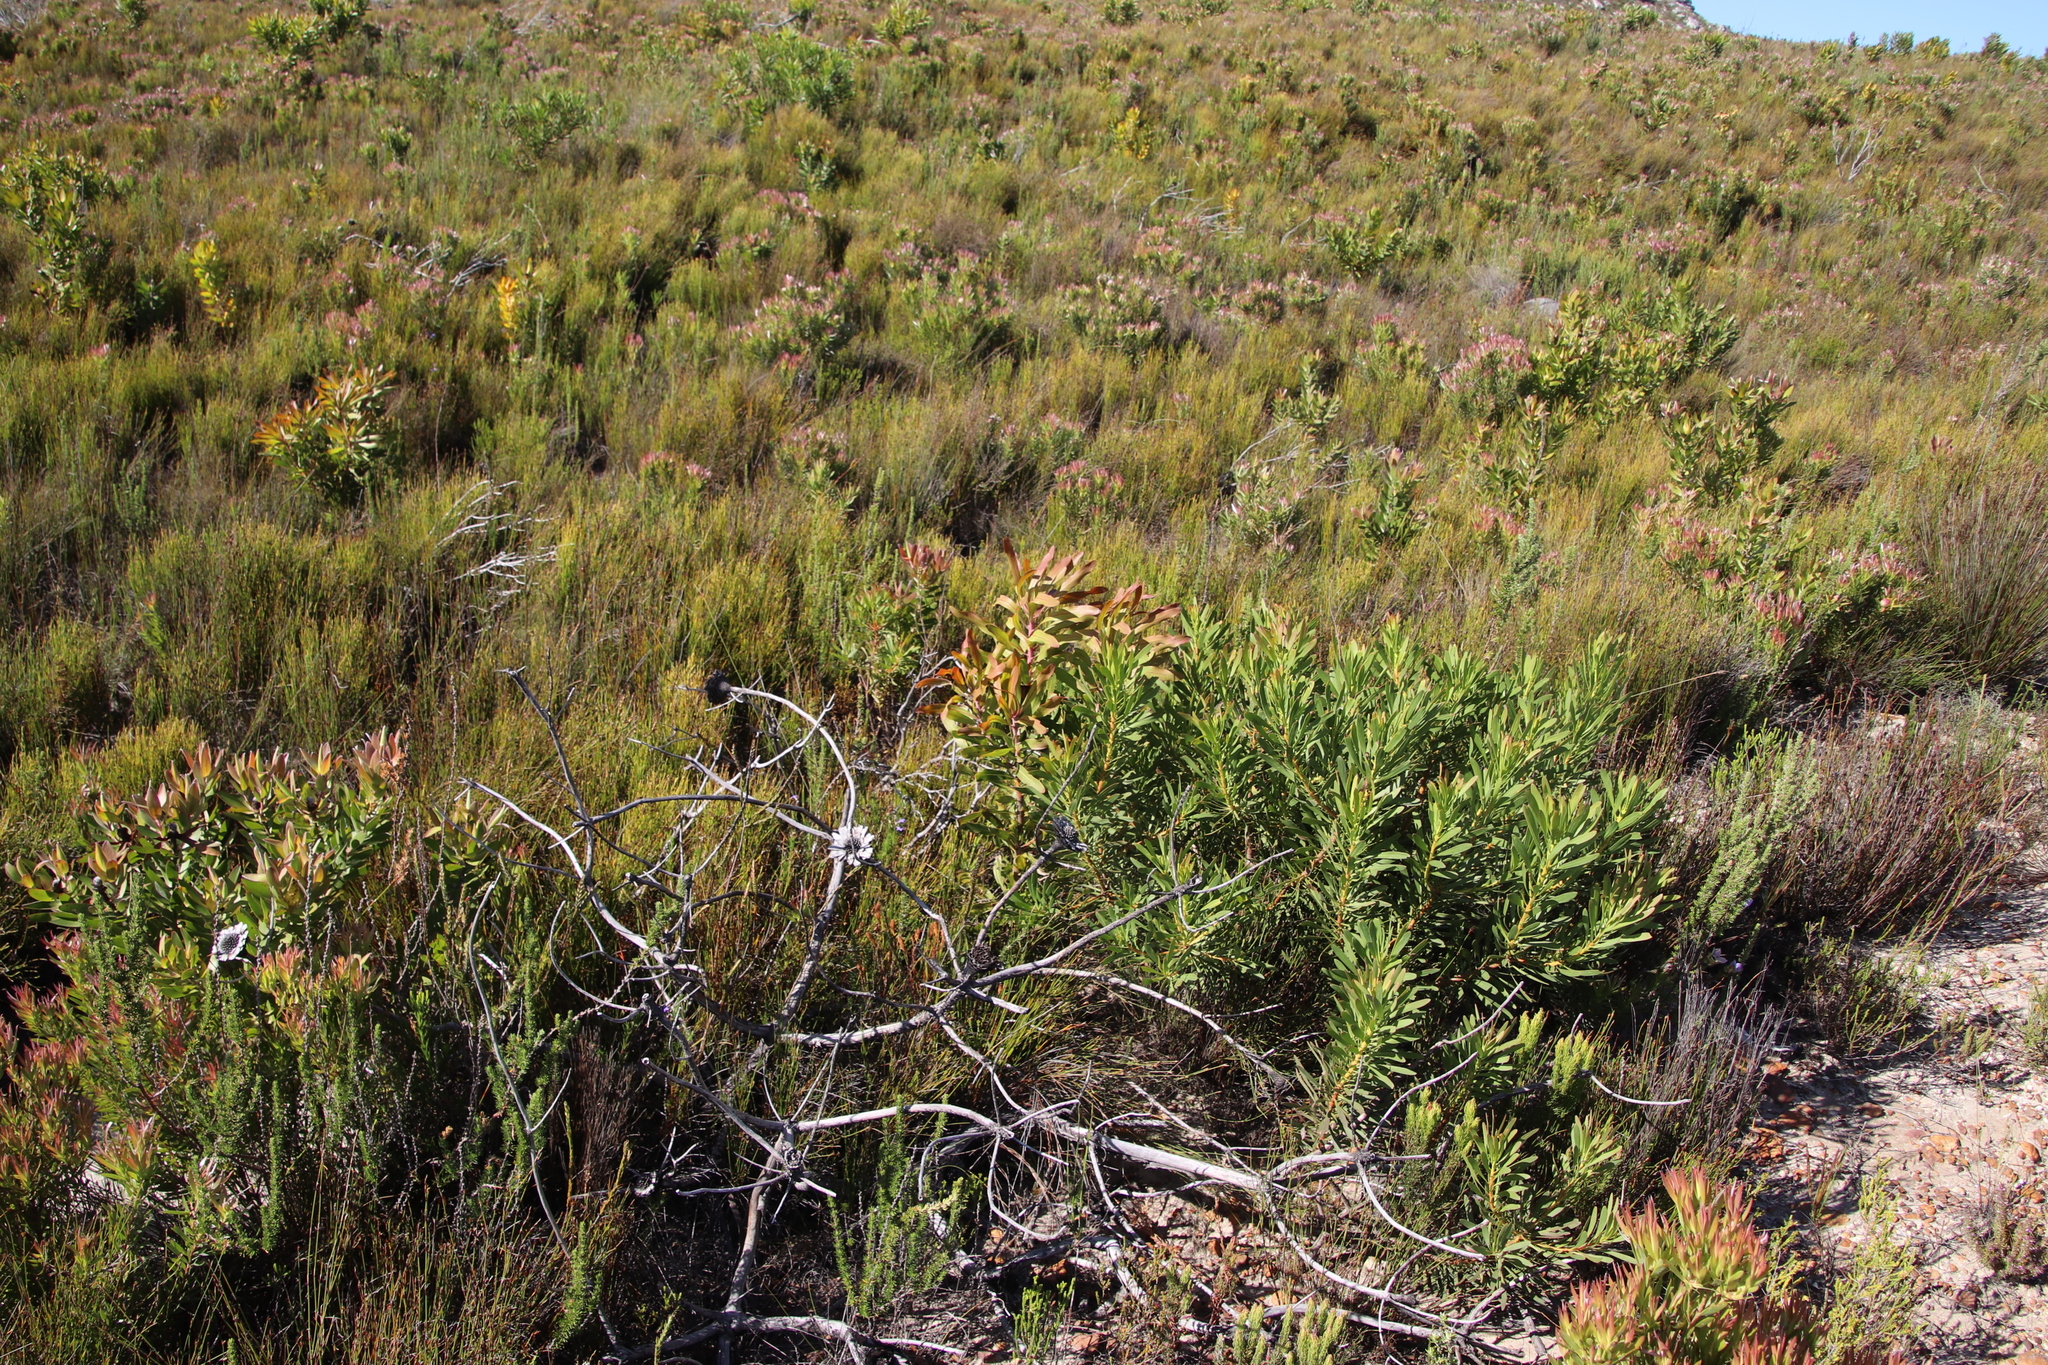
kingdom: Plantae
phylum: Tracheophyta
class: Magnoliopsida
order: Proteales
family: Proteaceae
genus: Protea
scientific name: Protea repens
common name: Sugarbush
